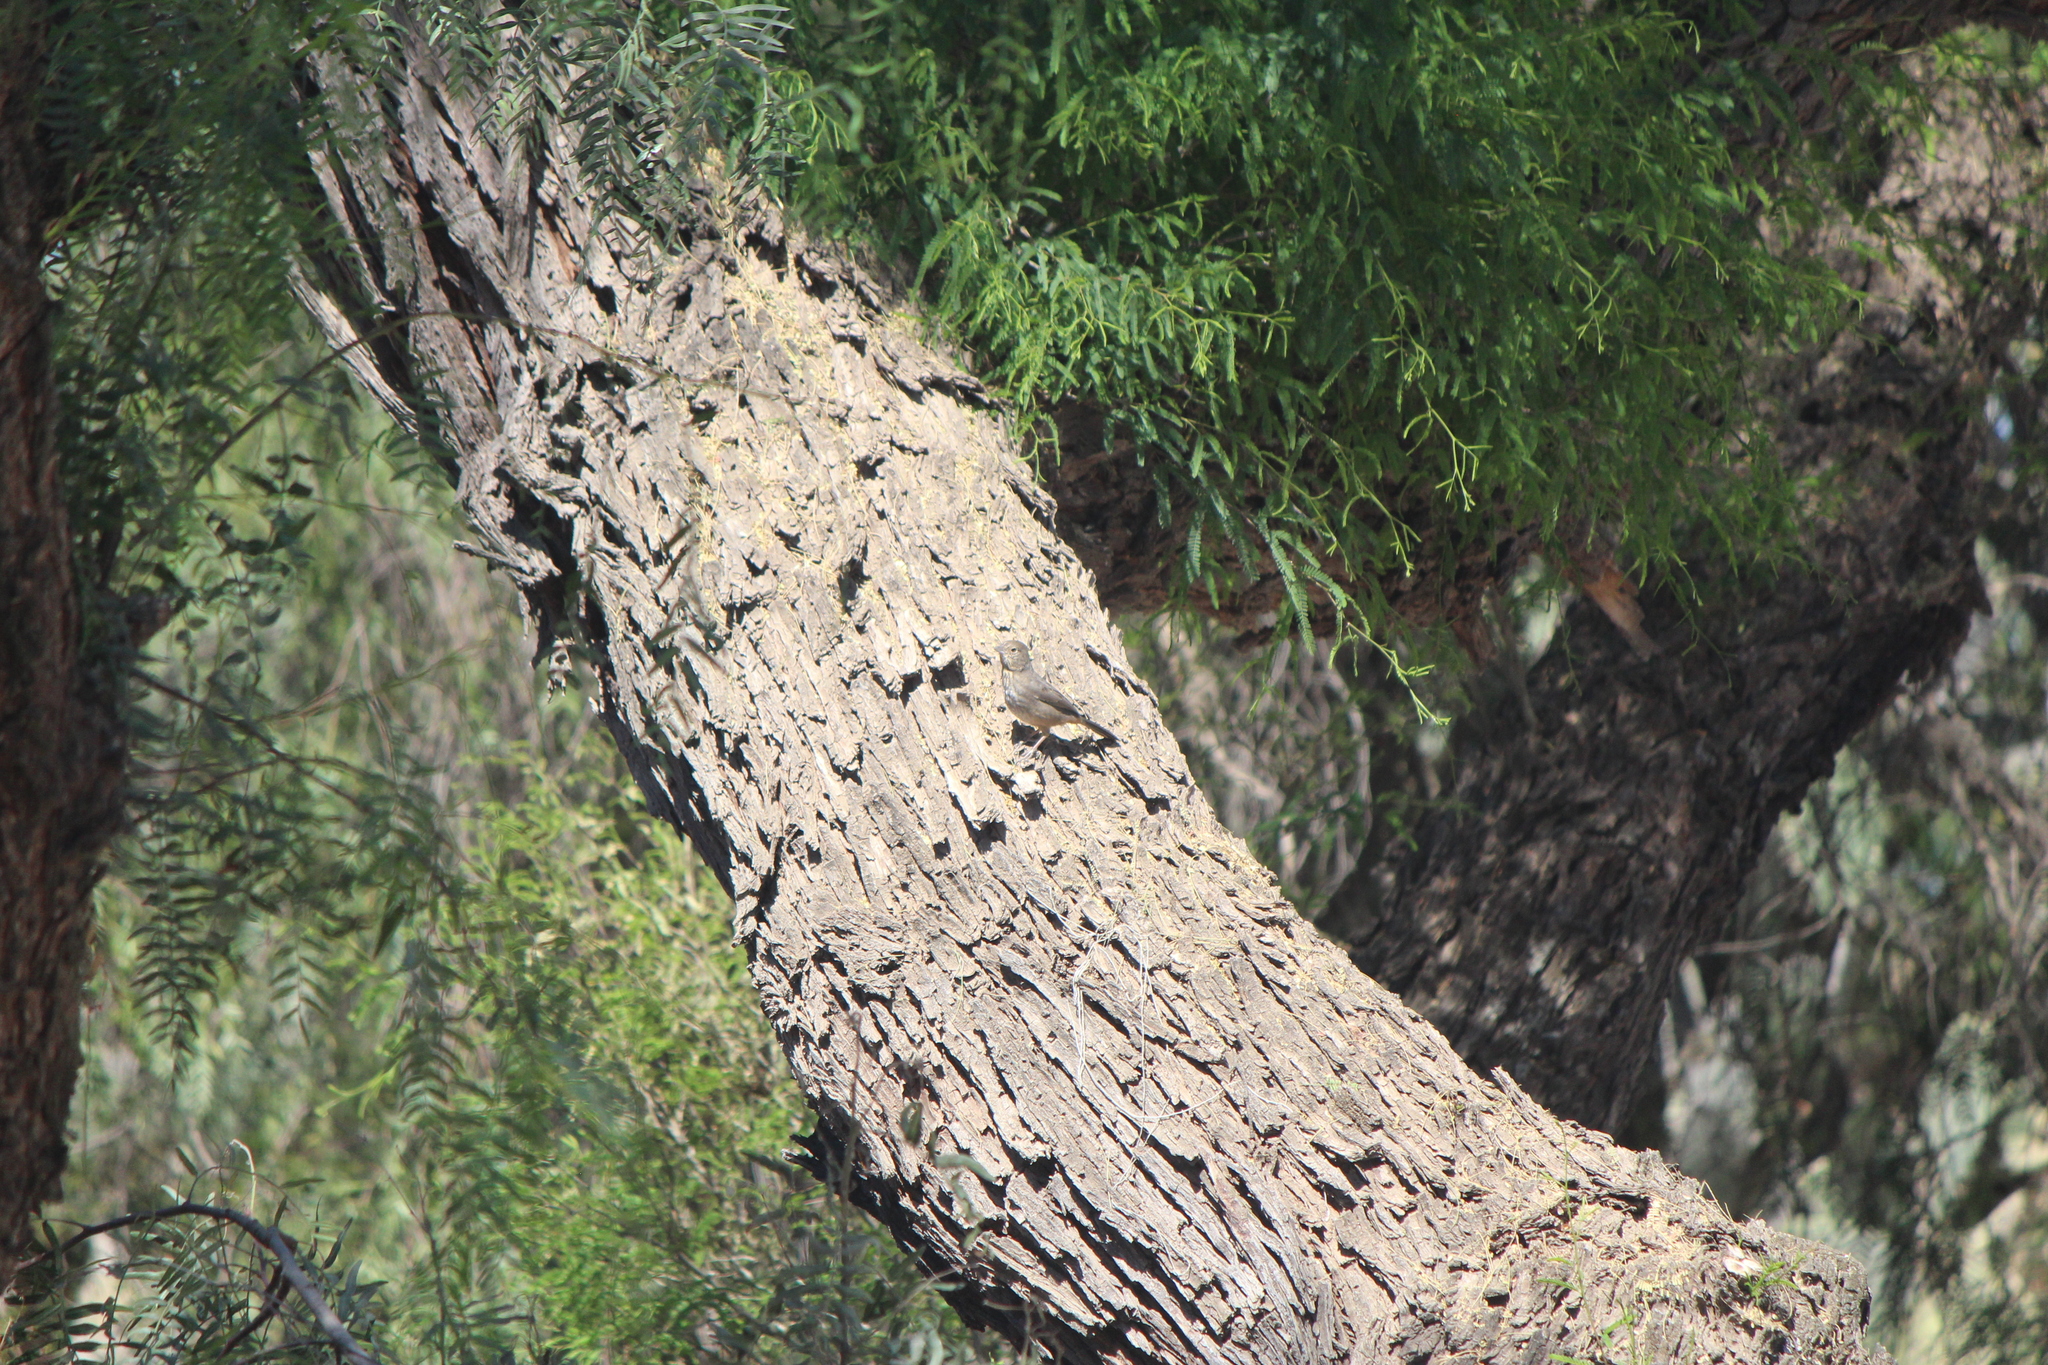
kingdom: Animalia
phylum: Chordata
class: Aves
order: Passeriformes
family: Passerellidae
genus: Melozone
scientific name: Melozone fusca
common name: Canyon towhee
